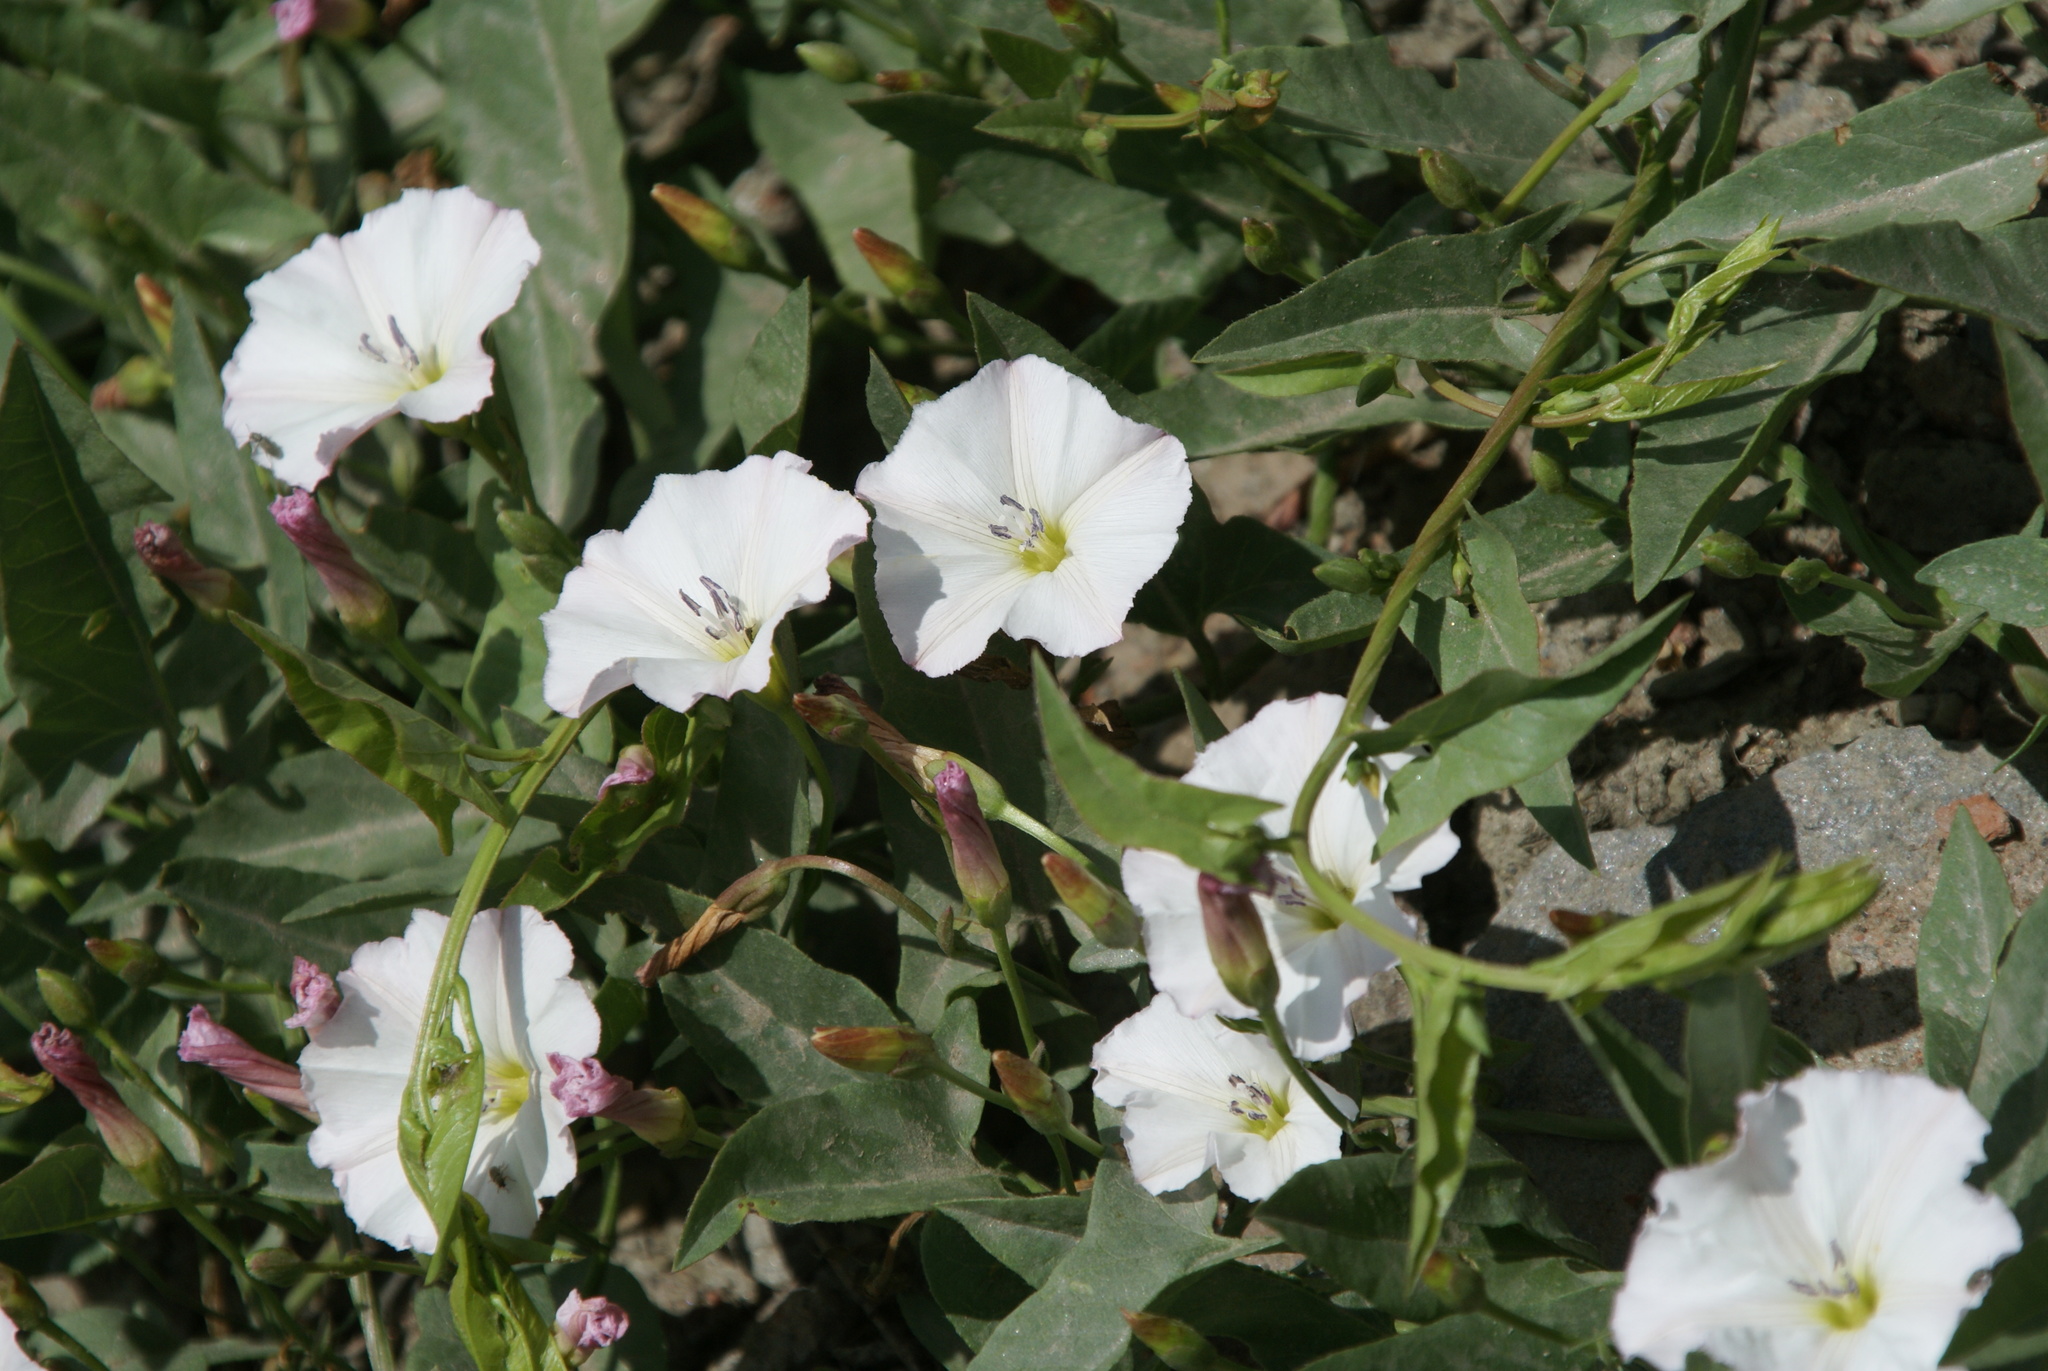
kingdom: Plantae
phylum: Tracheophyta
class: Magnoliopsida
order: Solanales
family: Convolvulaceae
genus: Convolvulus
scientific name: Convolvulus arvensis
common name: Field bindweed
